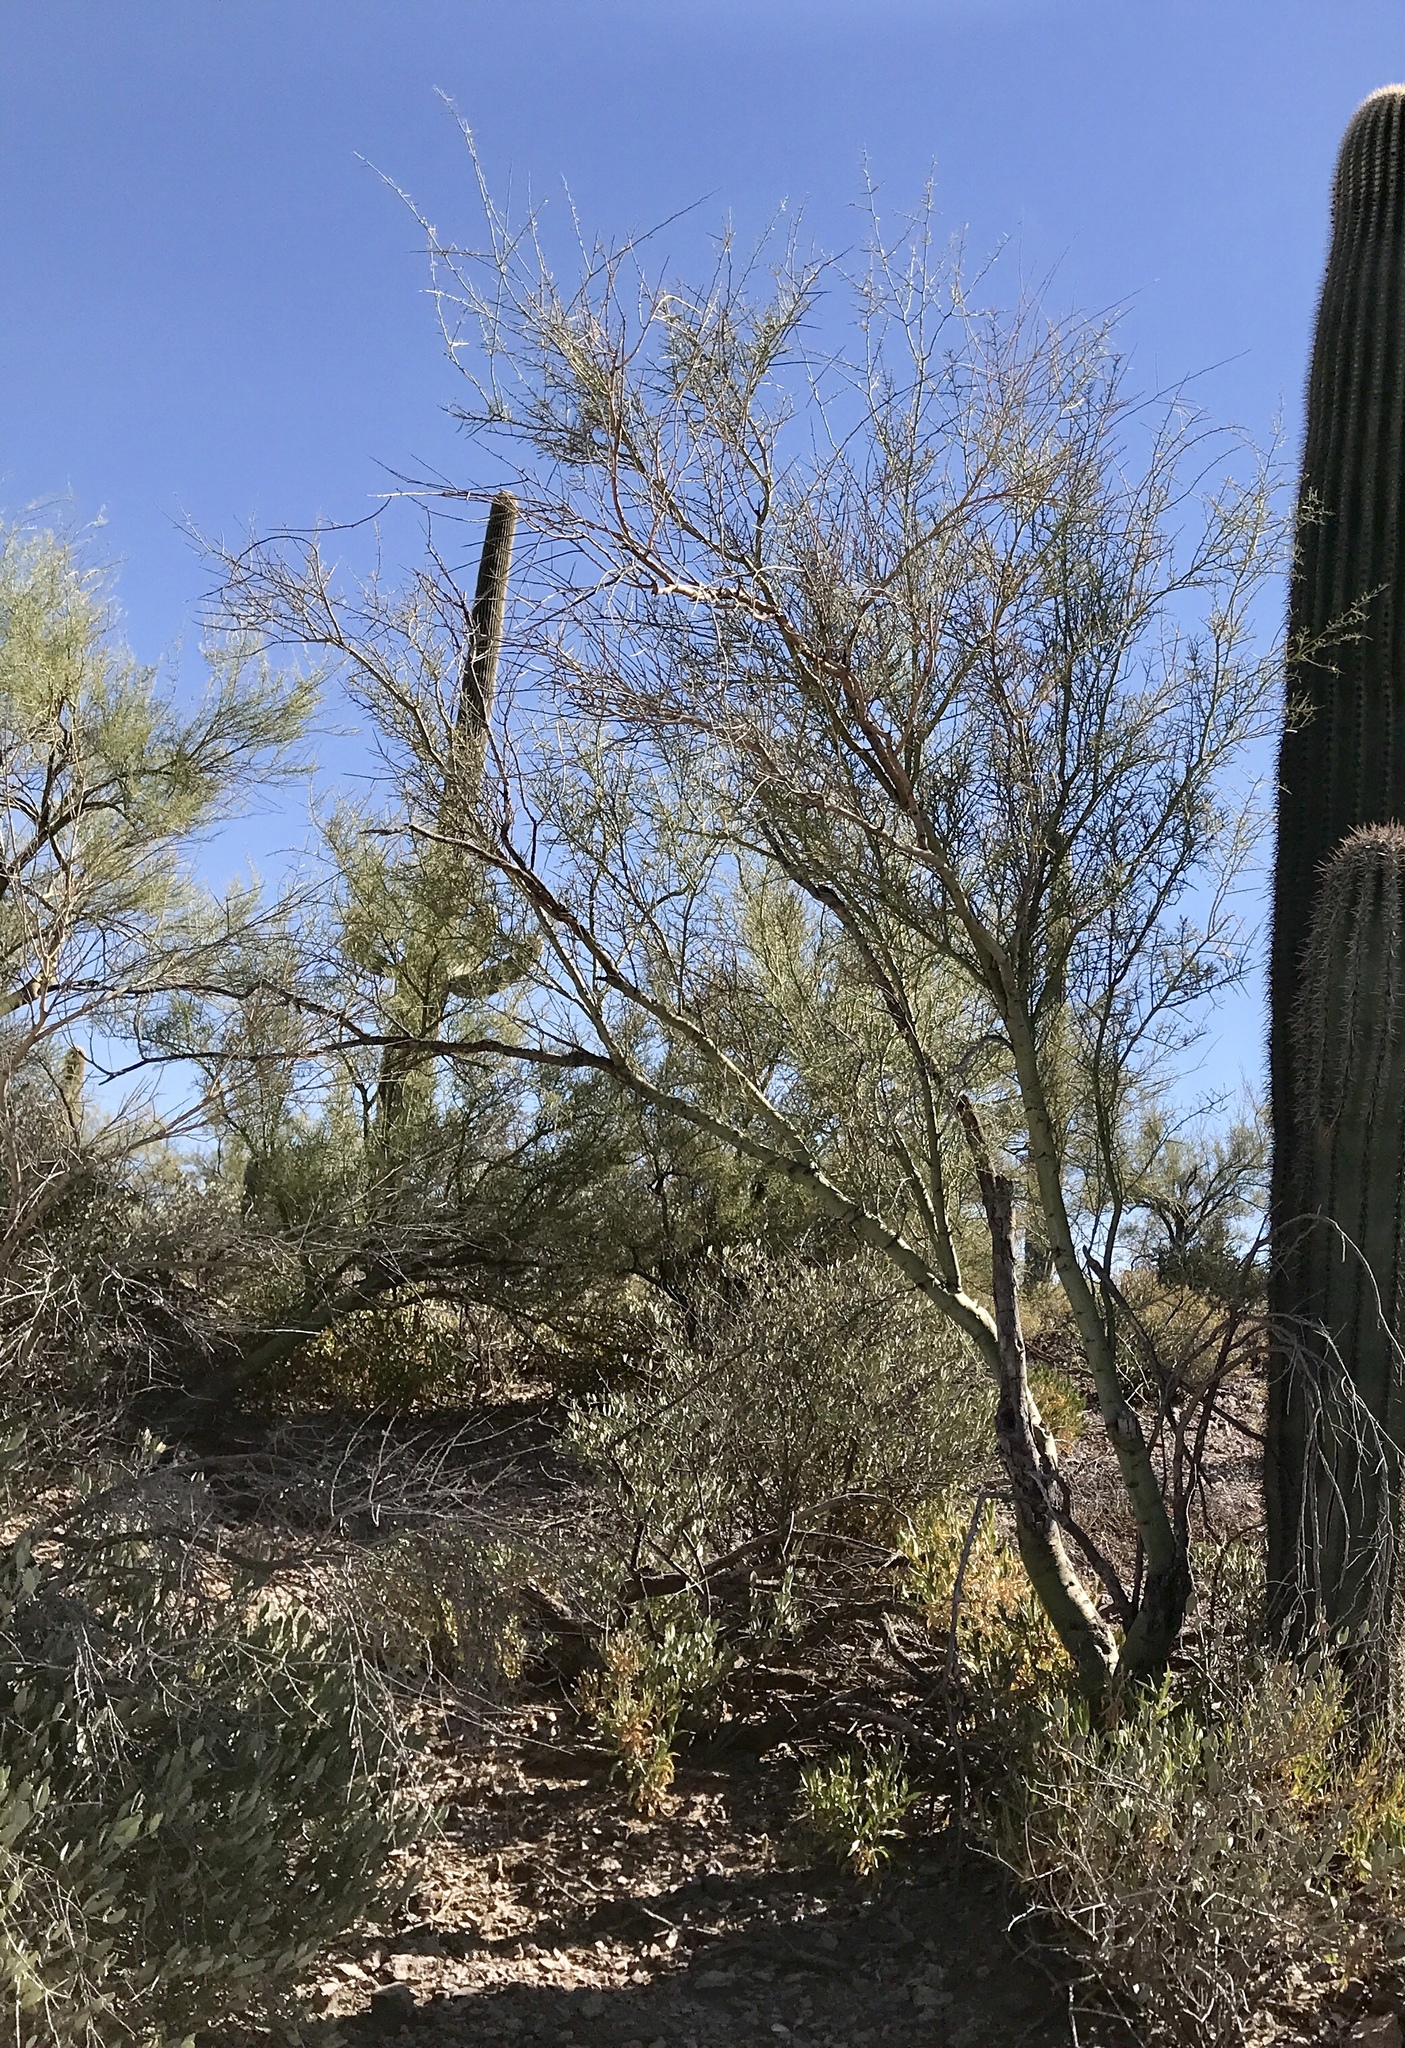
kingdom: Plantae
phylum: Tracheophyta
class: Magnoliopsida
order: Fabales
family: Fabaceae
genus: Parkinsonia
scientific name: Parkinsonia microphylla
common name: Yellow paloverde
